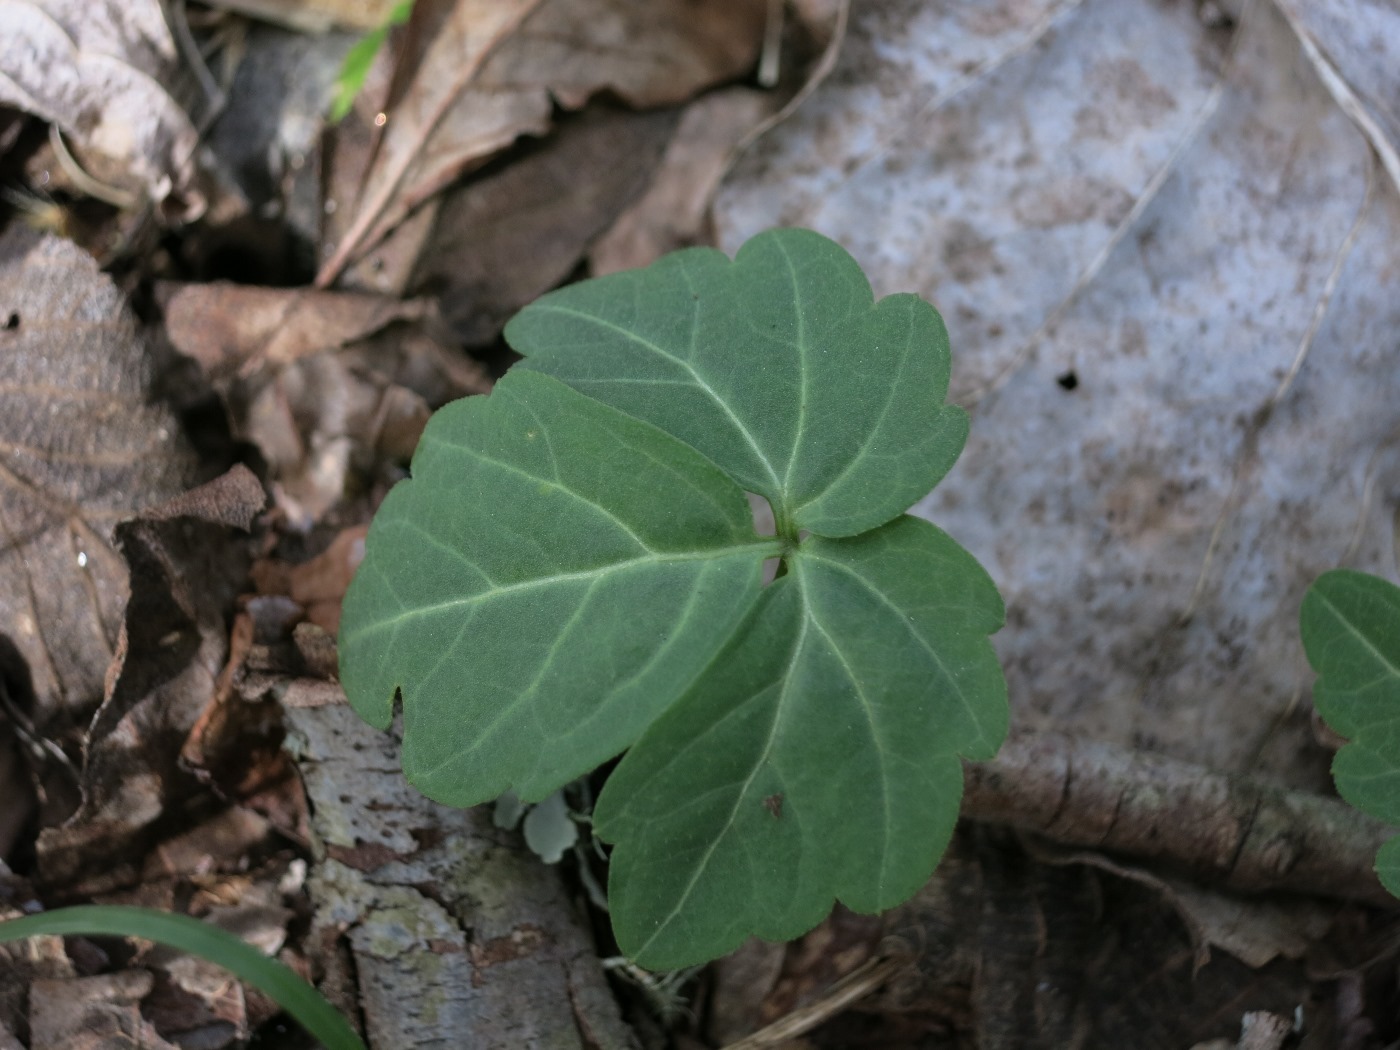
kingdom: Plantae
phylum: Tracheophyta
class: Magnoliopsida
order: Brassicales
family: Brassicaceae
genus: Cardamine
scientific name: Cardamine diphylla
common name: Broad-leaved toothwort
